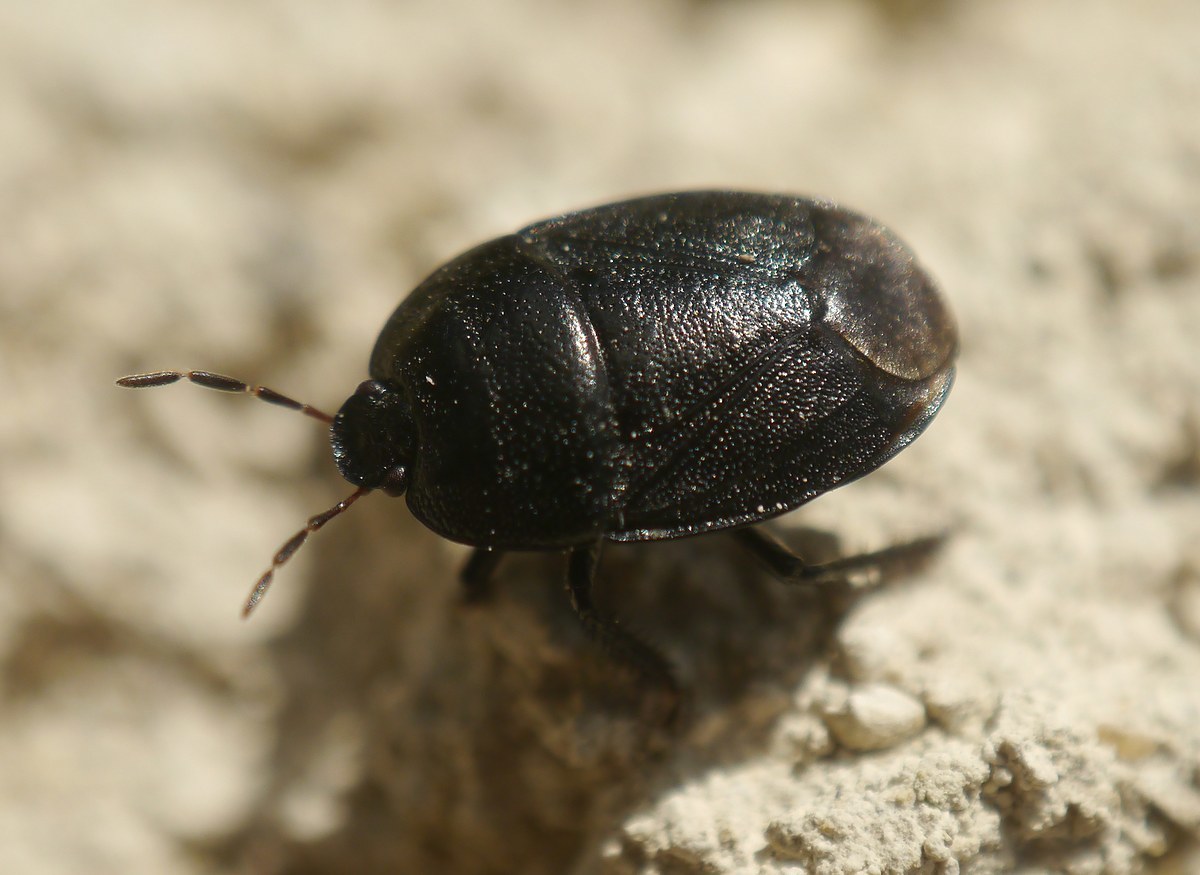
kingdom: Animalia
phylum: Arthropoda
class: Insecta
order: Hemiptera
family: Cydnidae
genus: Sehirus
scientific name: Sehirus luctuosus
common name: Forget-me-not shieldbug
